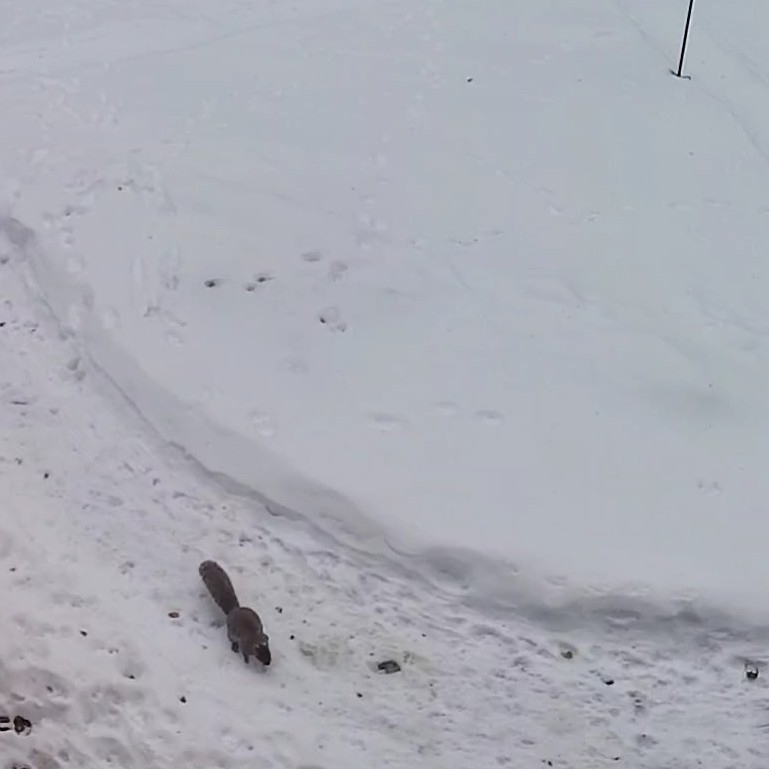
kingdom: Animalia
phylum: Chordata
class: Mammalia
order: Rodentia
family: Sciuridae
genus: Sciurus
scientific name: Sciurus carolinensis
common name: Eastern gray squirrel
